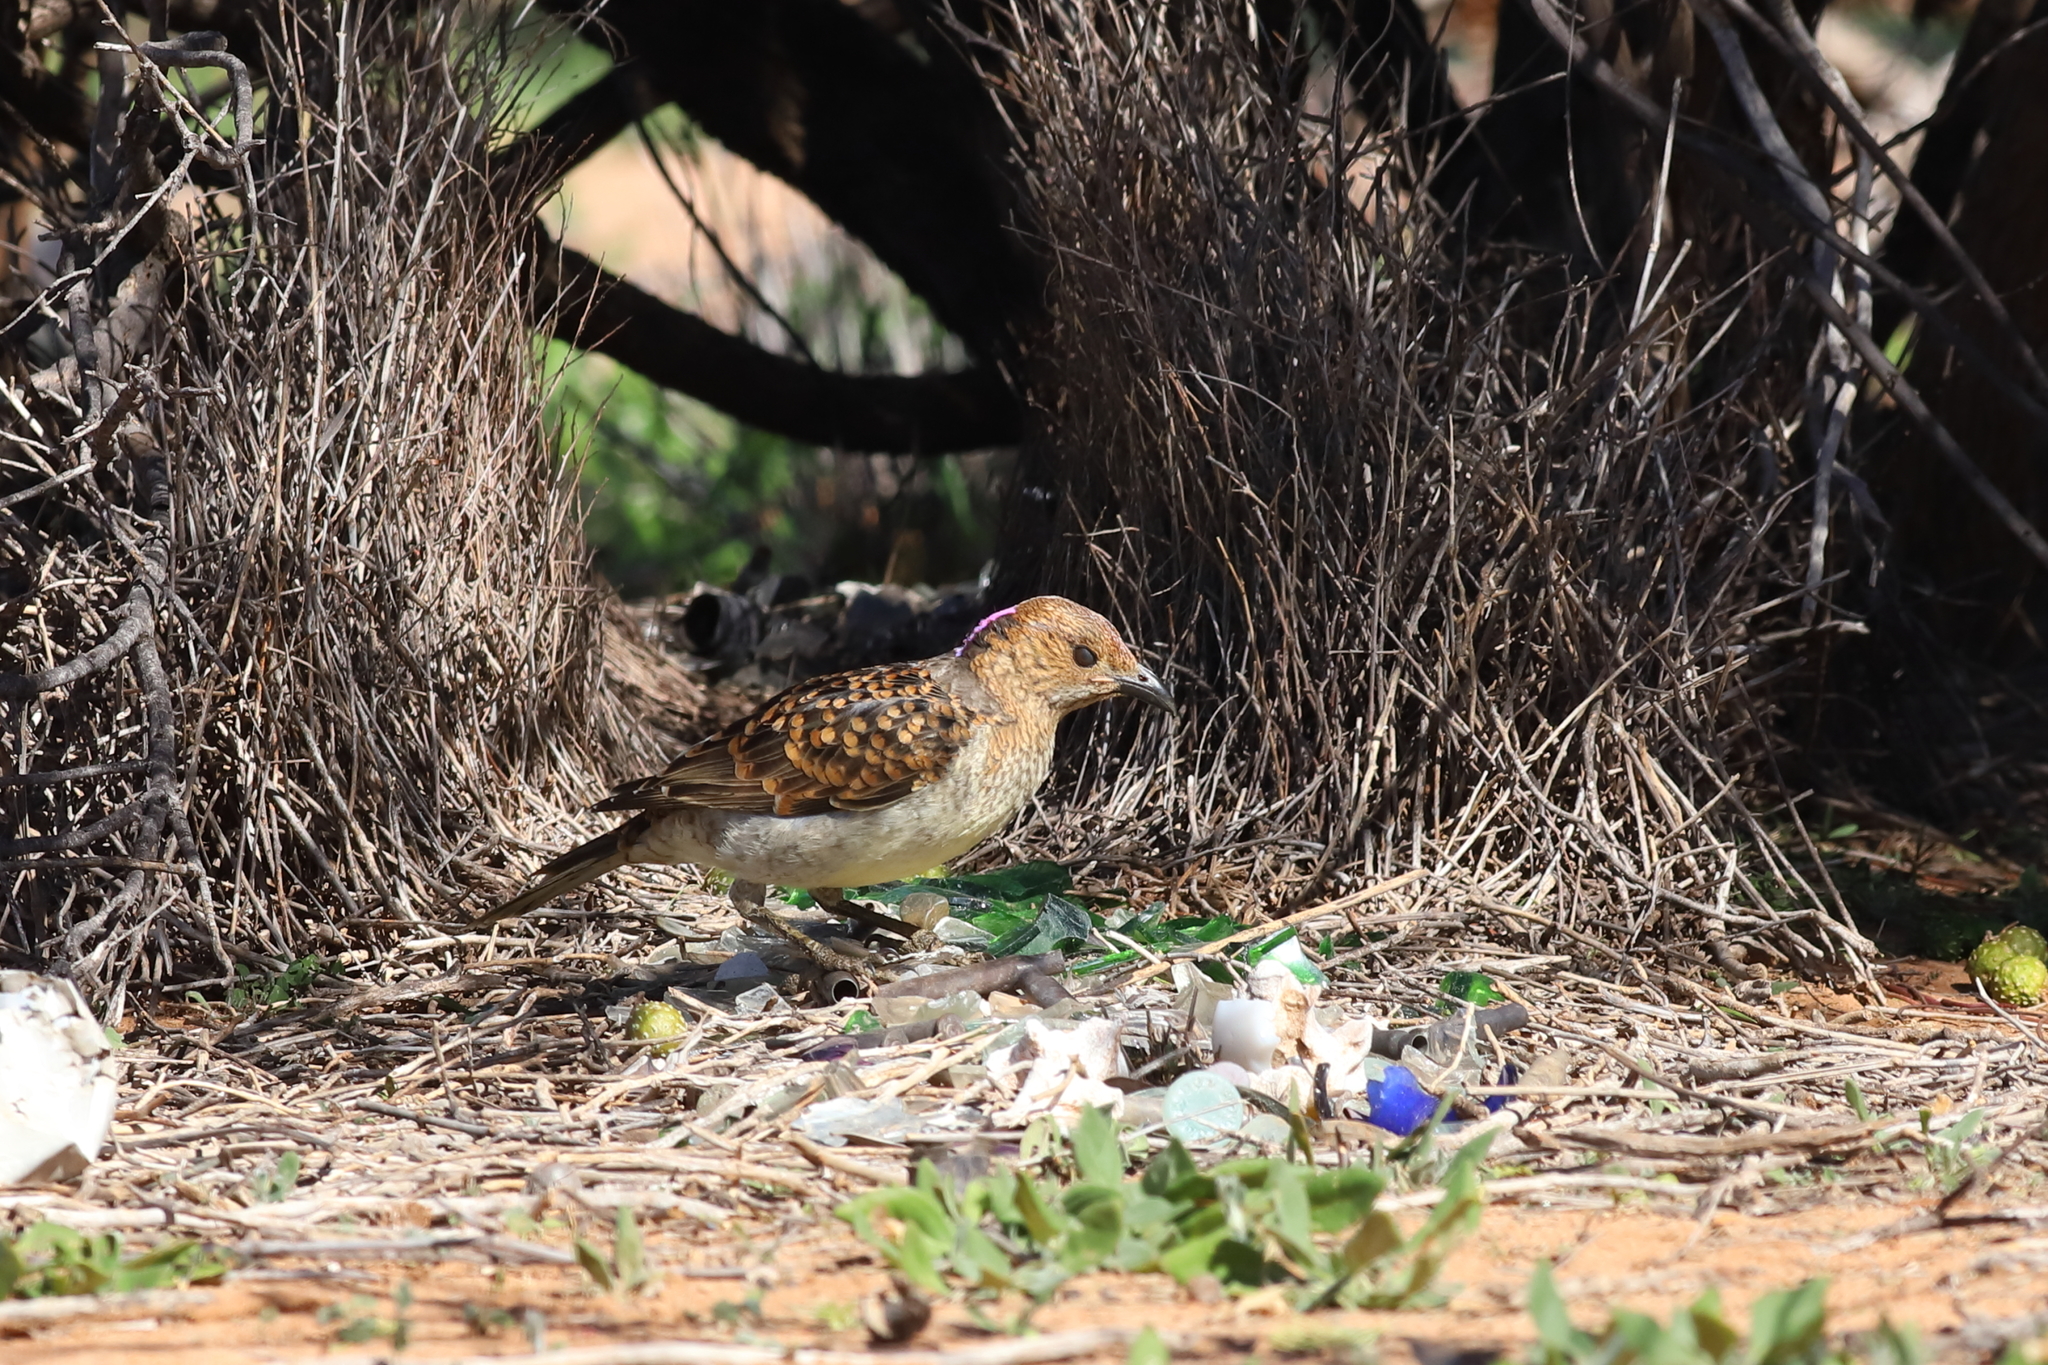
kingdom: Animalia
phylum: Chordata
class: Aves
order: Passeriformes
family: Ptilonorhynchidae
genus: Chlamydera
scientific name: Chlamydera maculata
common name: Spotted bowerbird
